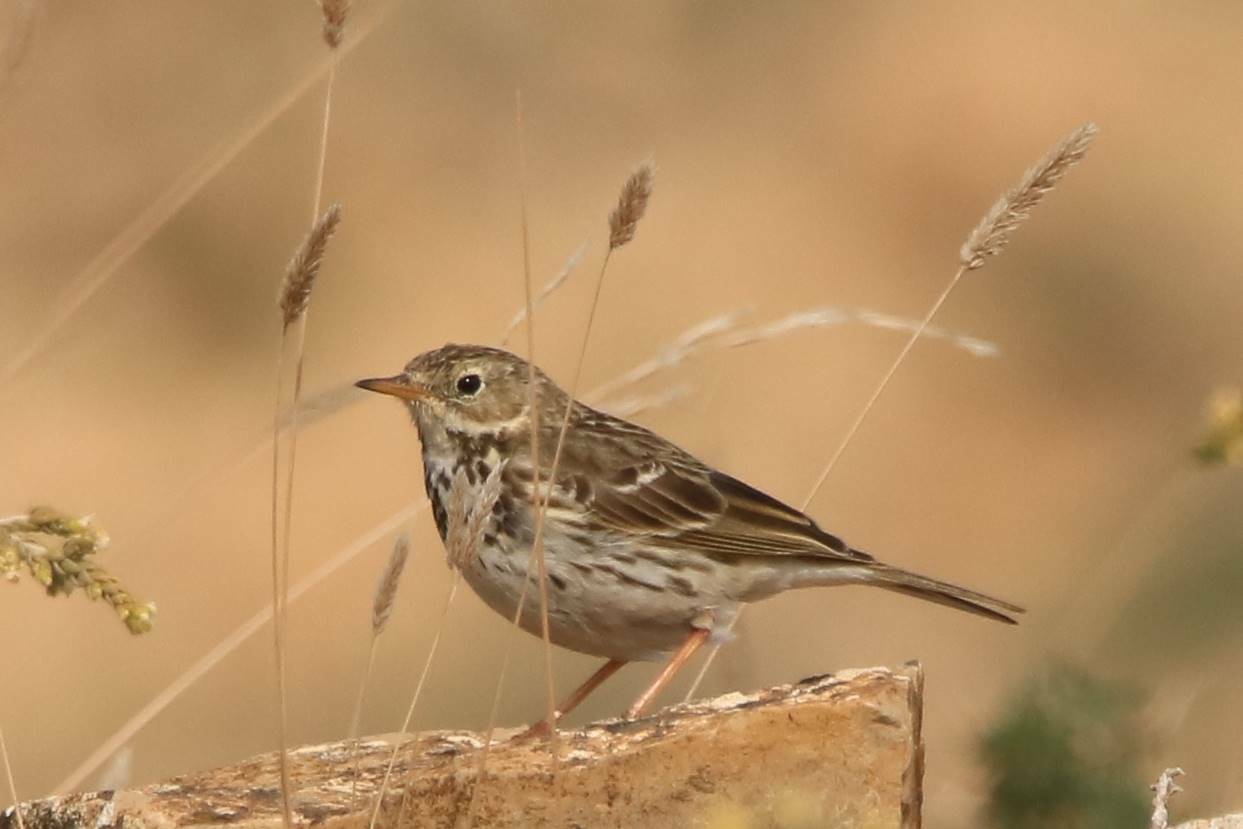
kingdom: Animalia
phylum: Chordata
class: Aves
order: Passeriformes
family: Motacillidae
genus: Anthus
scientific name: Anthus pratensis
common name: Meadow pipit
